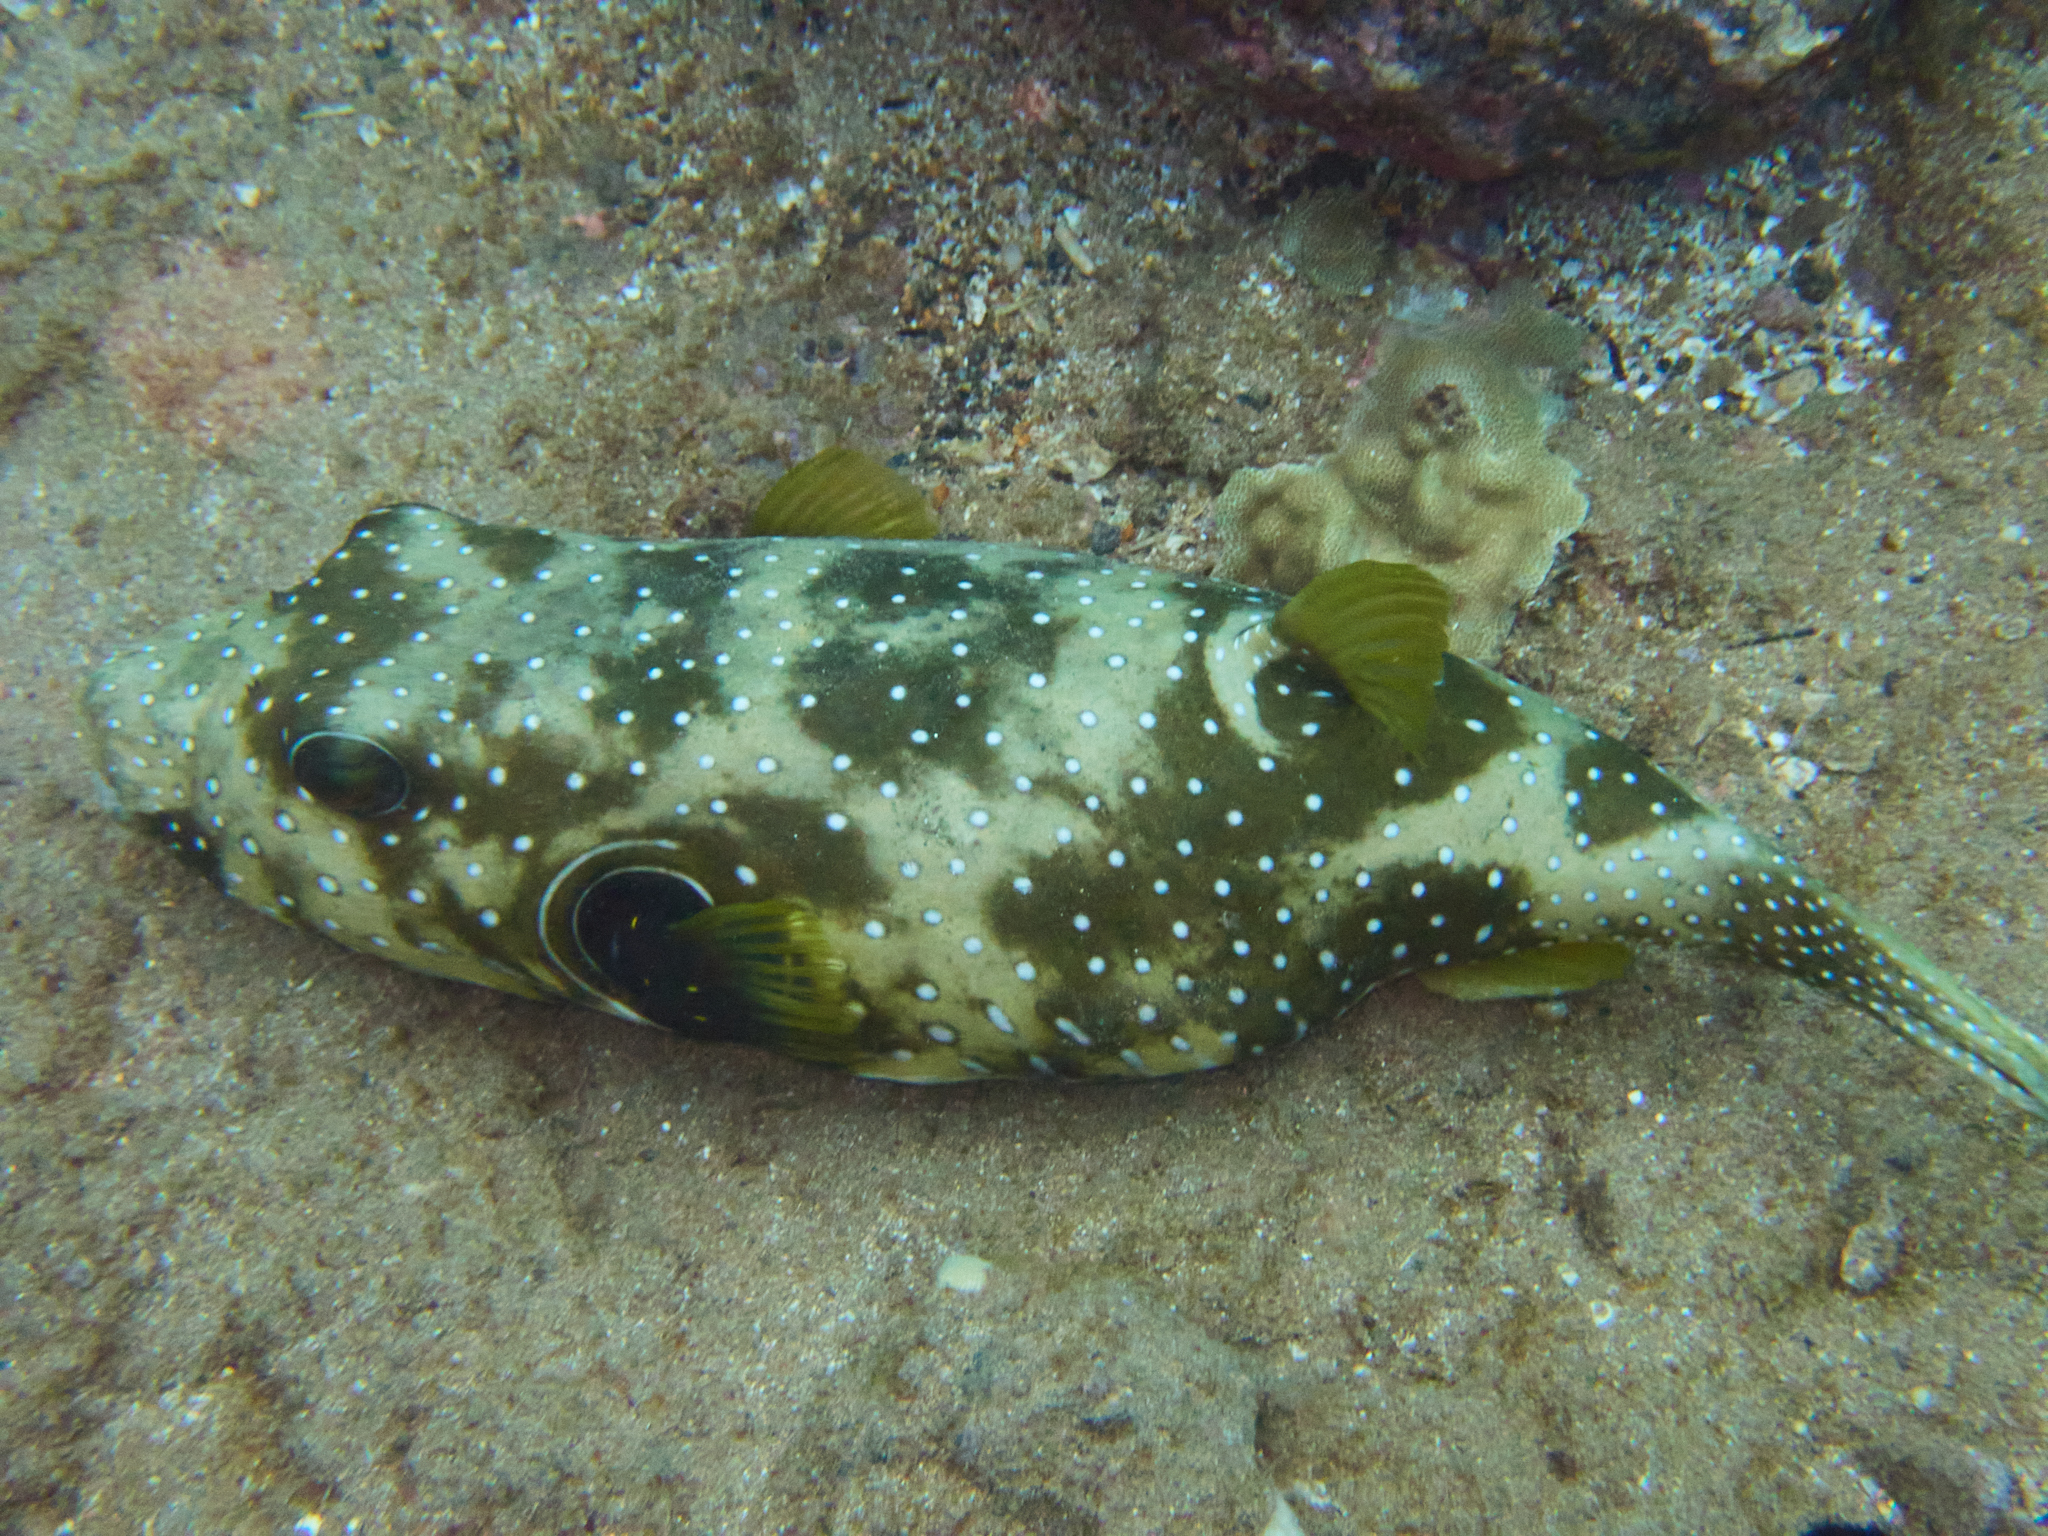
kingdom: Animalia
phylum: Chordata
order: Tetraodontiformes
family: Tetraodontidae
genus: Arothron
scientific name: Arothron hispidus
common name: Stripebelly puffer
